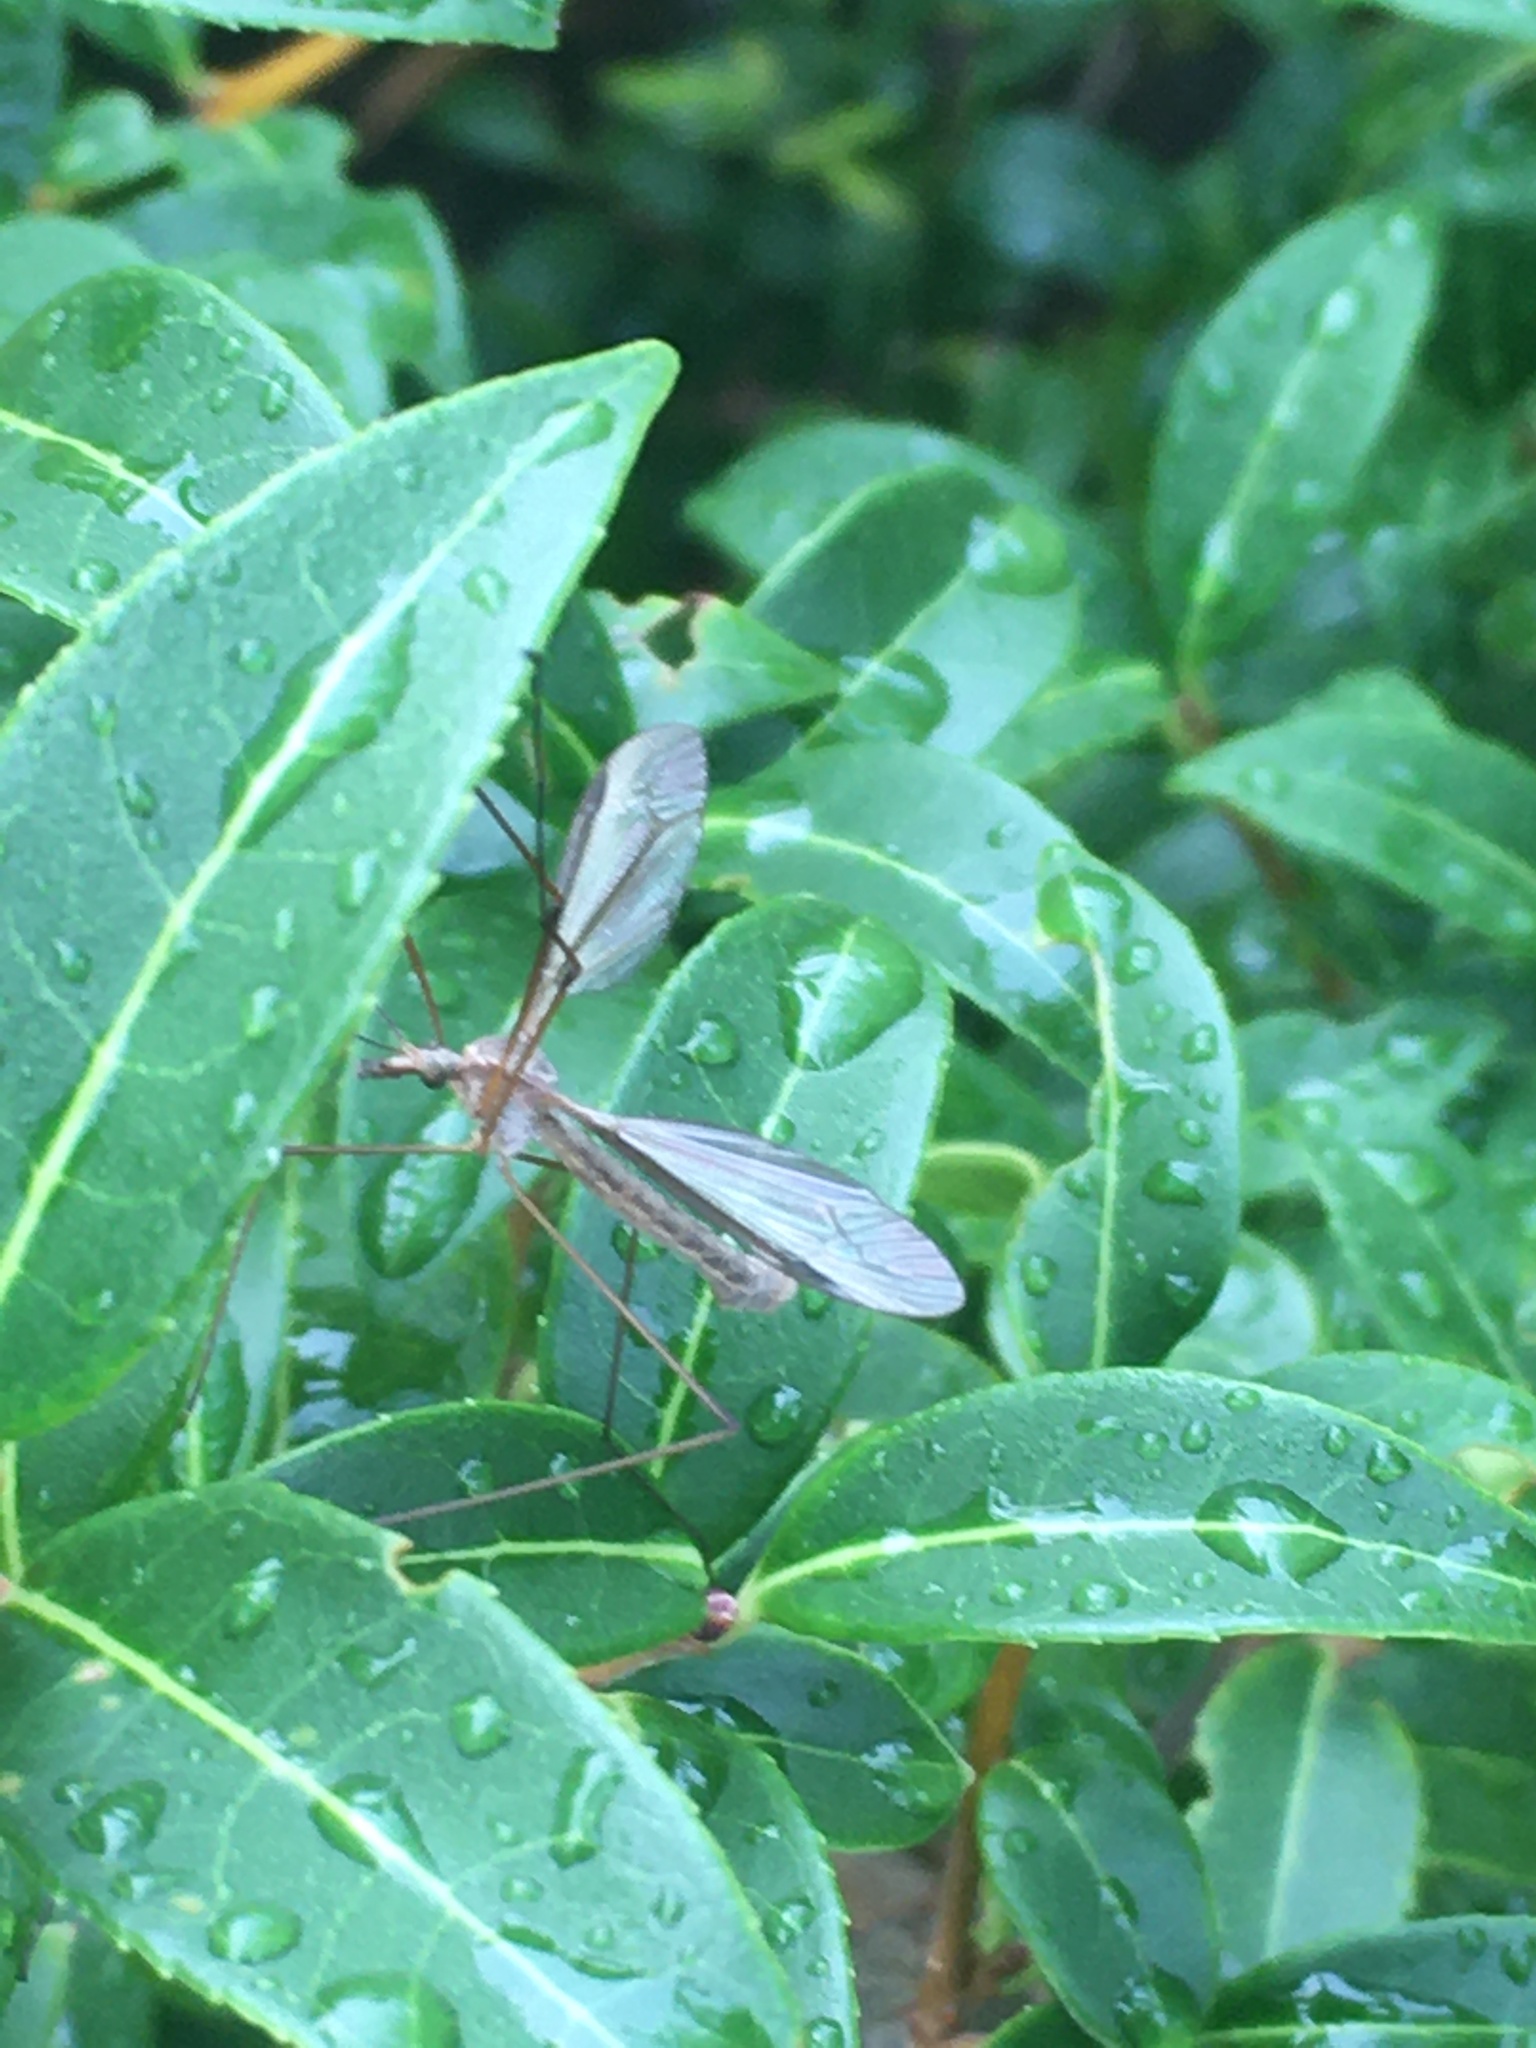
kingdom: Animalia
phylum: Arthropoda
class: Insecta
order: Diptera
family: Tipulidae
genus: Tipula
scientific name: Tipula
